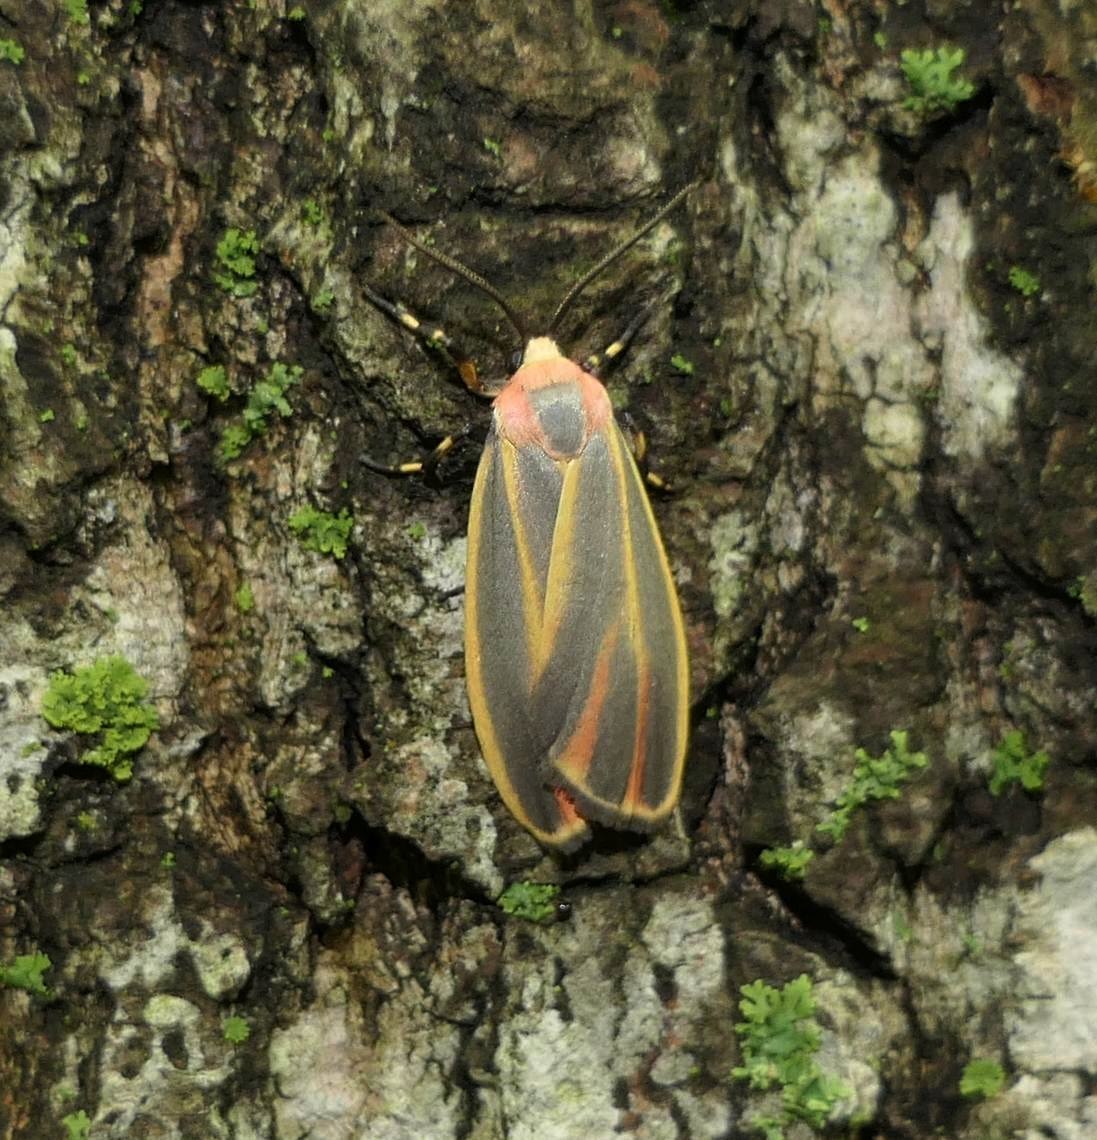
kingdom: Animalia
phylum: Arthropoda
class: Insecta
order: Lepidoptera
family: Erebidae
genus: Hypoprepia
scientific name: Hypoprepia fucosa
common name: Painted lichen moth
